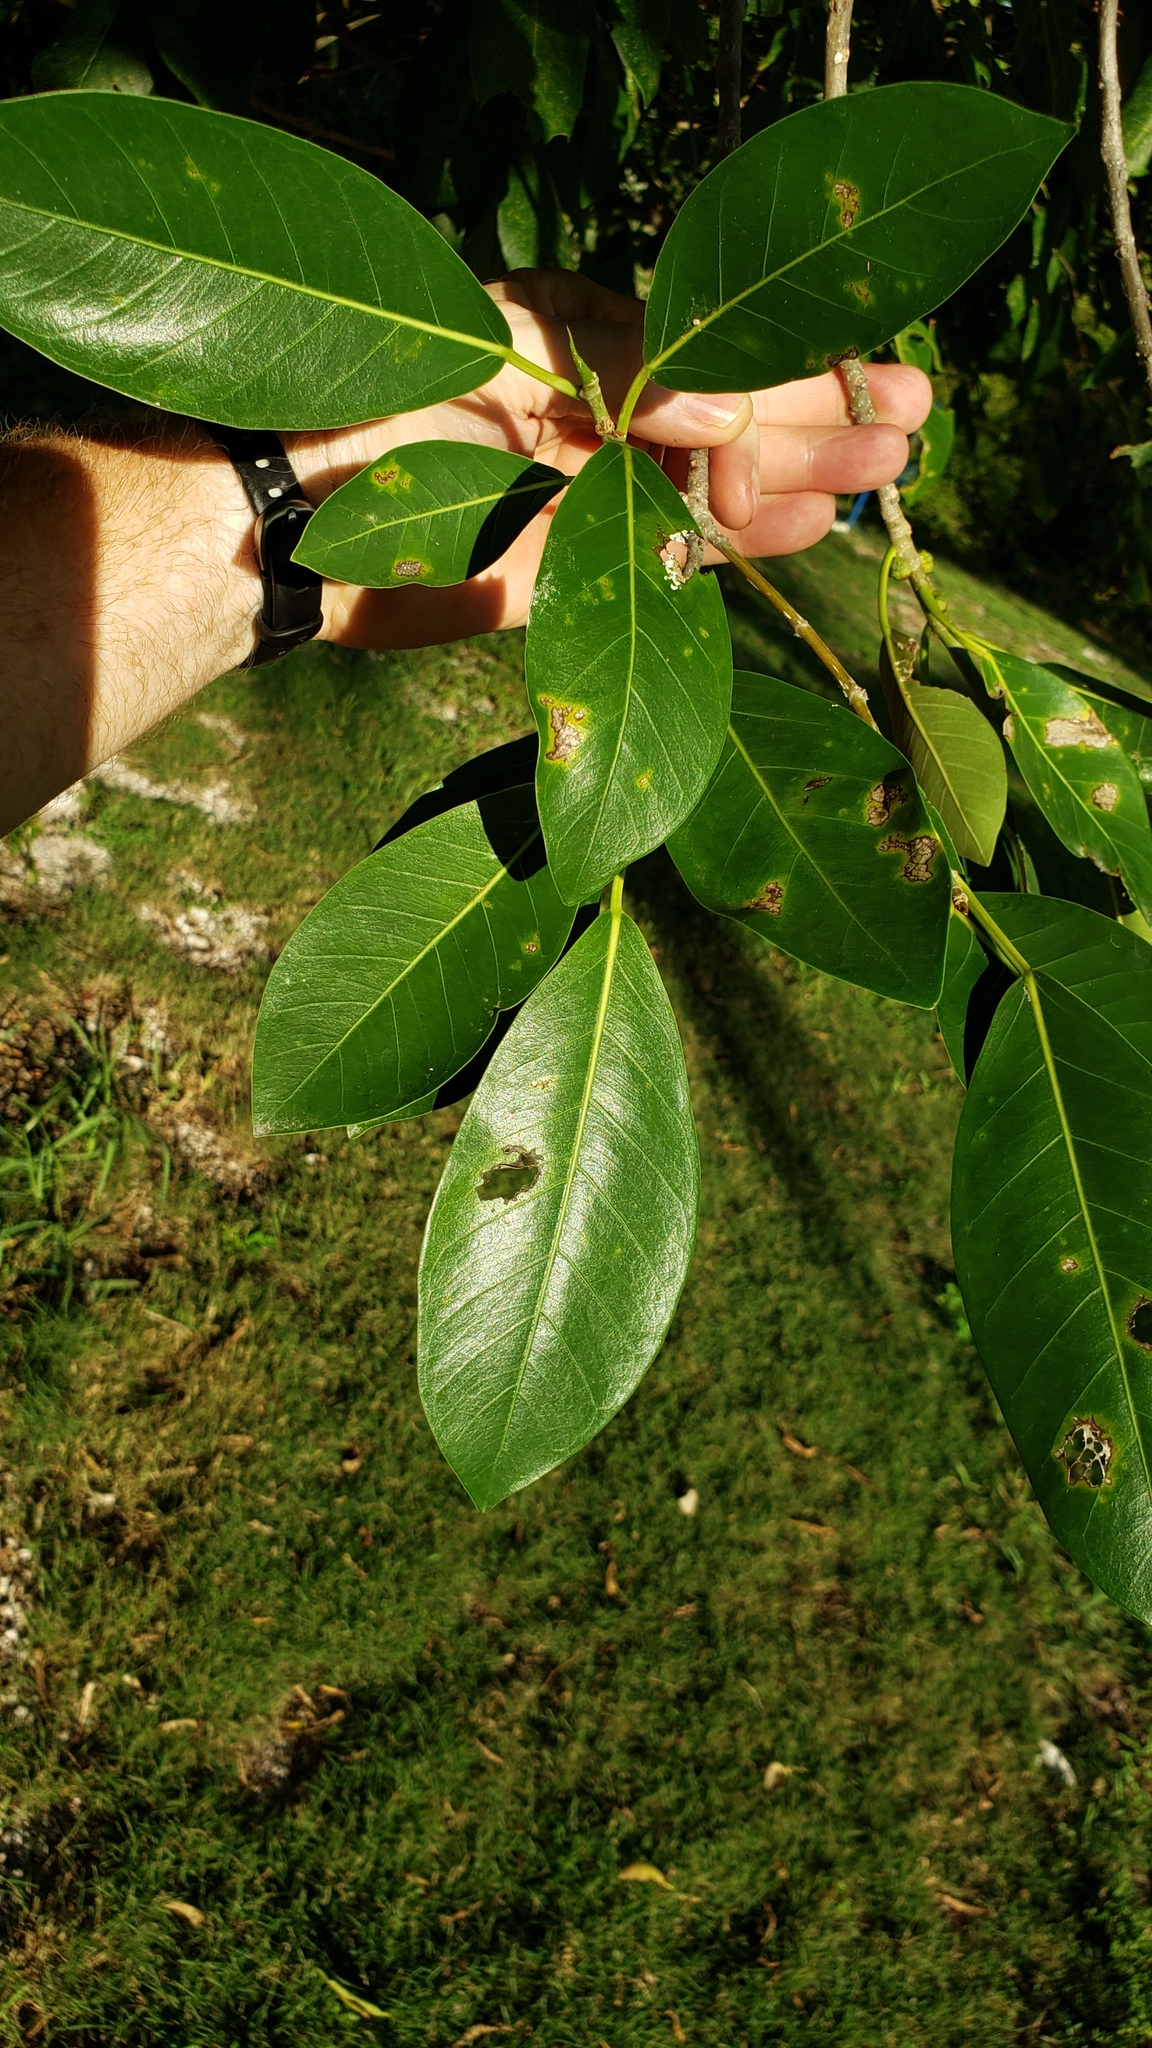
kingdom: Plantae
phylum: Tracheophyta
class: Magnoliopsida
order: Rosales
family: Moraceae
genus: Ficus
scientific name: Ficus aurea
